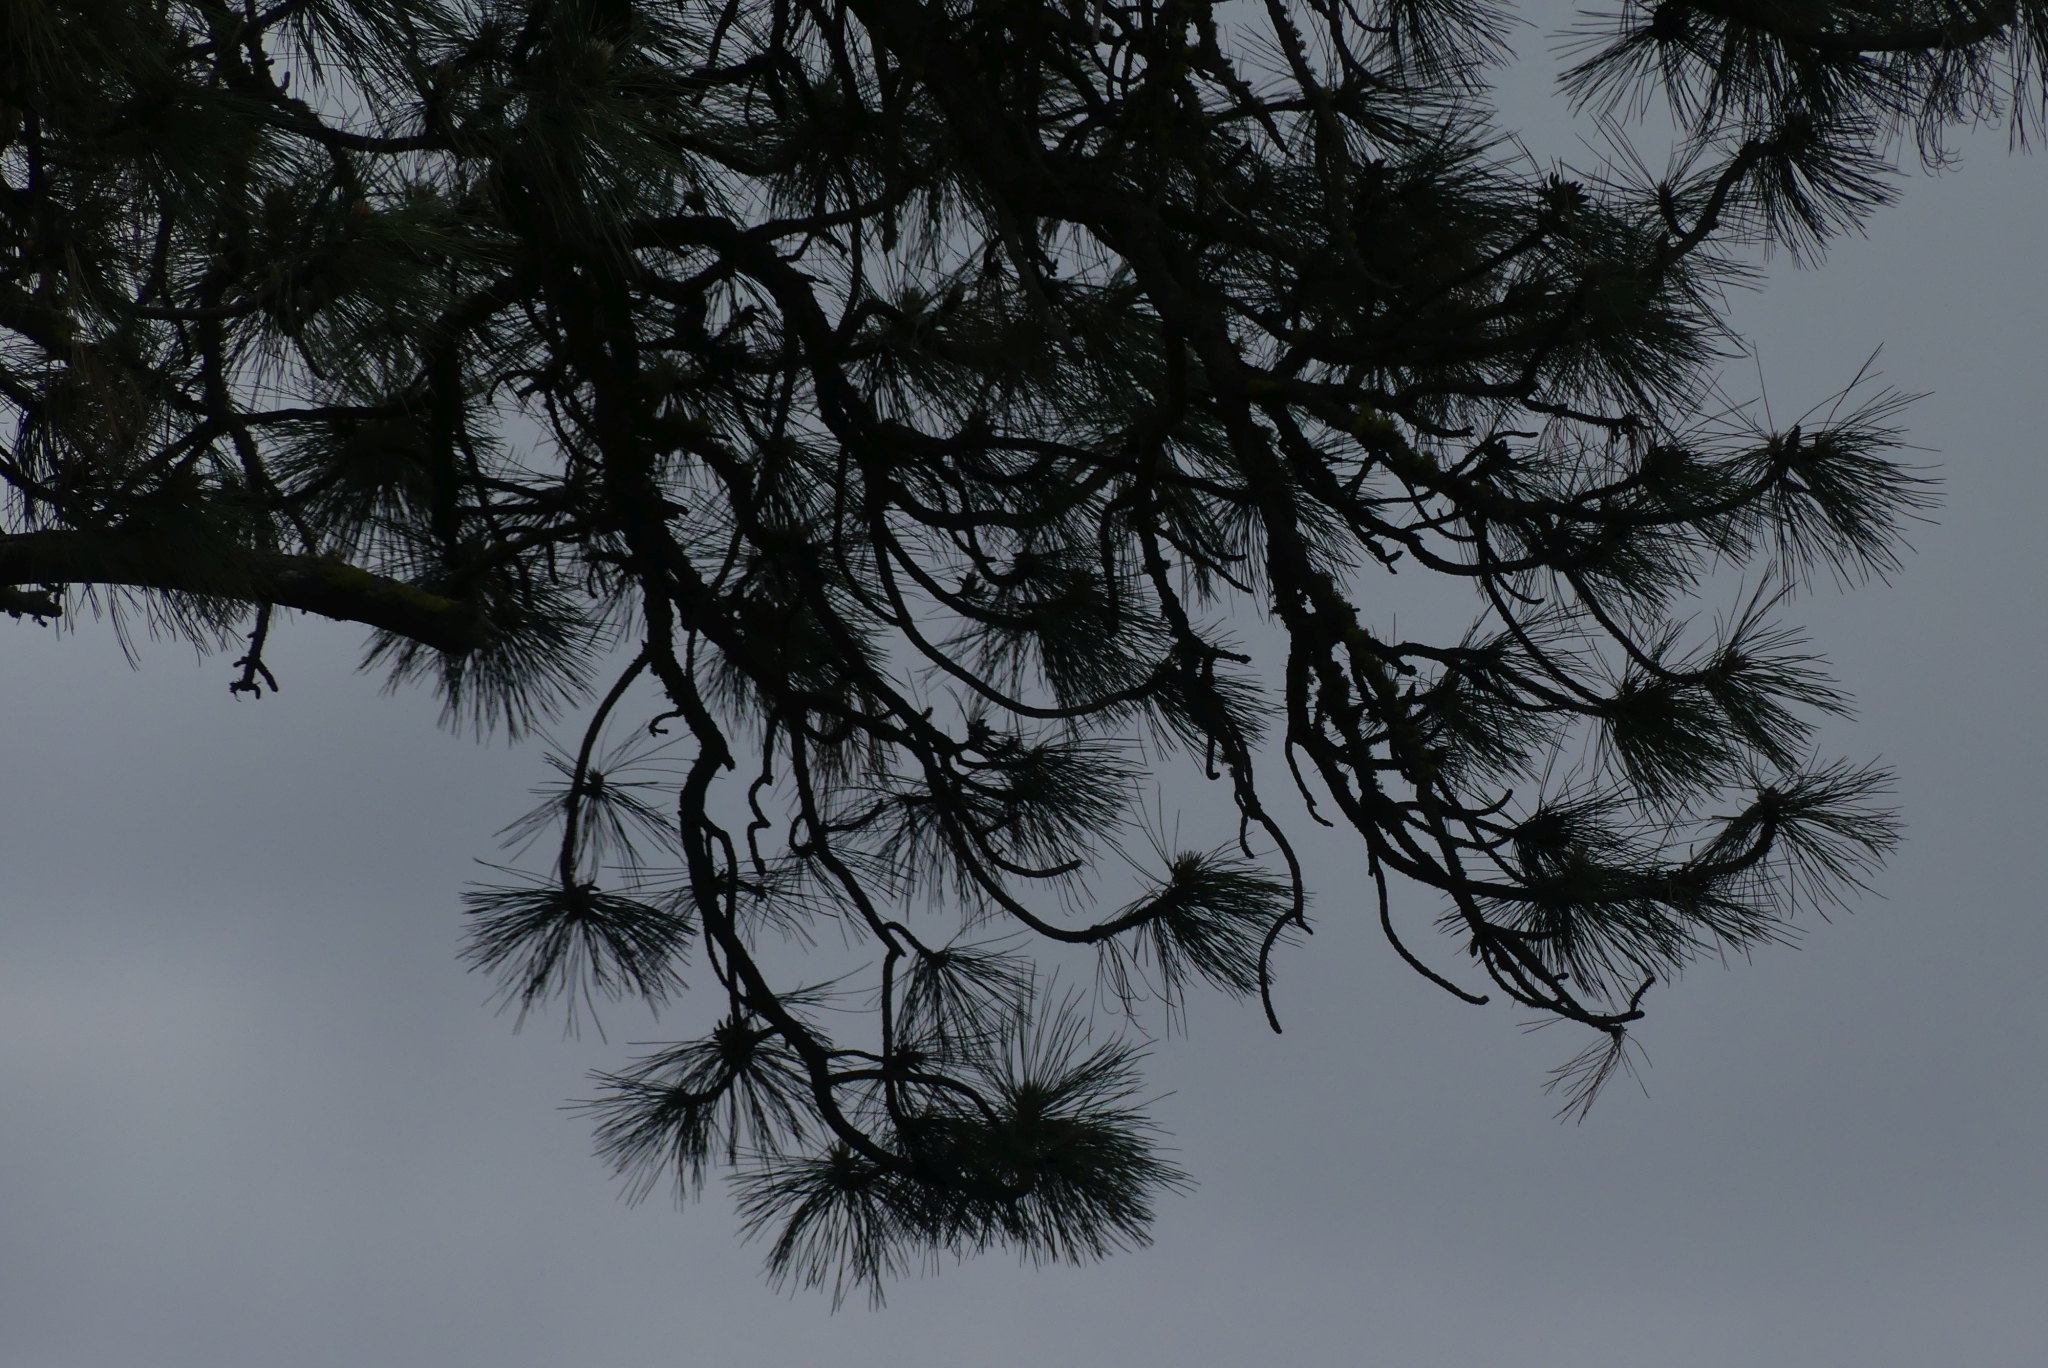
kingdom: Plantae
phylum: Tracheophyta
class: Pinopsida
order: Pinales
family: Pinaceae
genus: Pinus
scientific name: Pinus ponderosa
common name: Western yellow-pine
